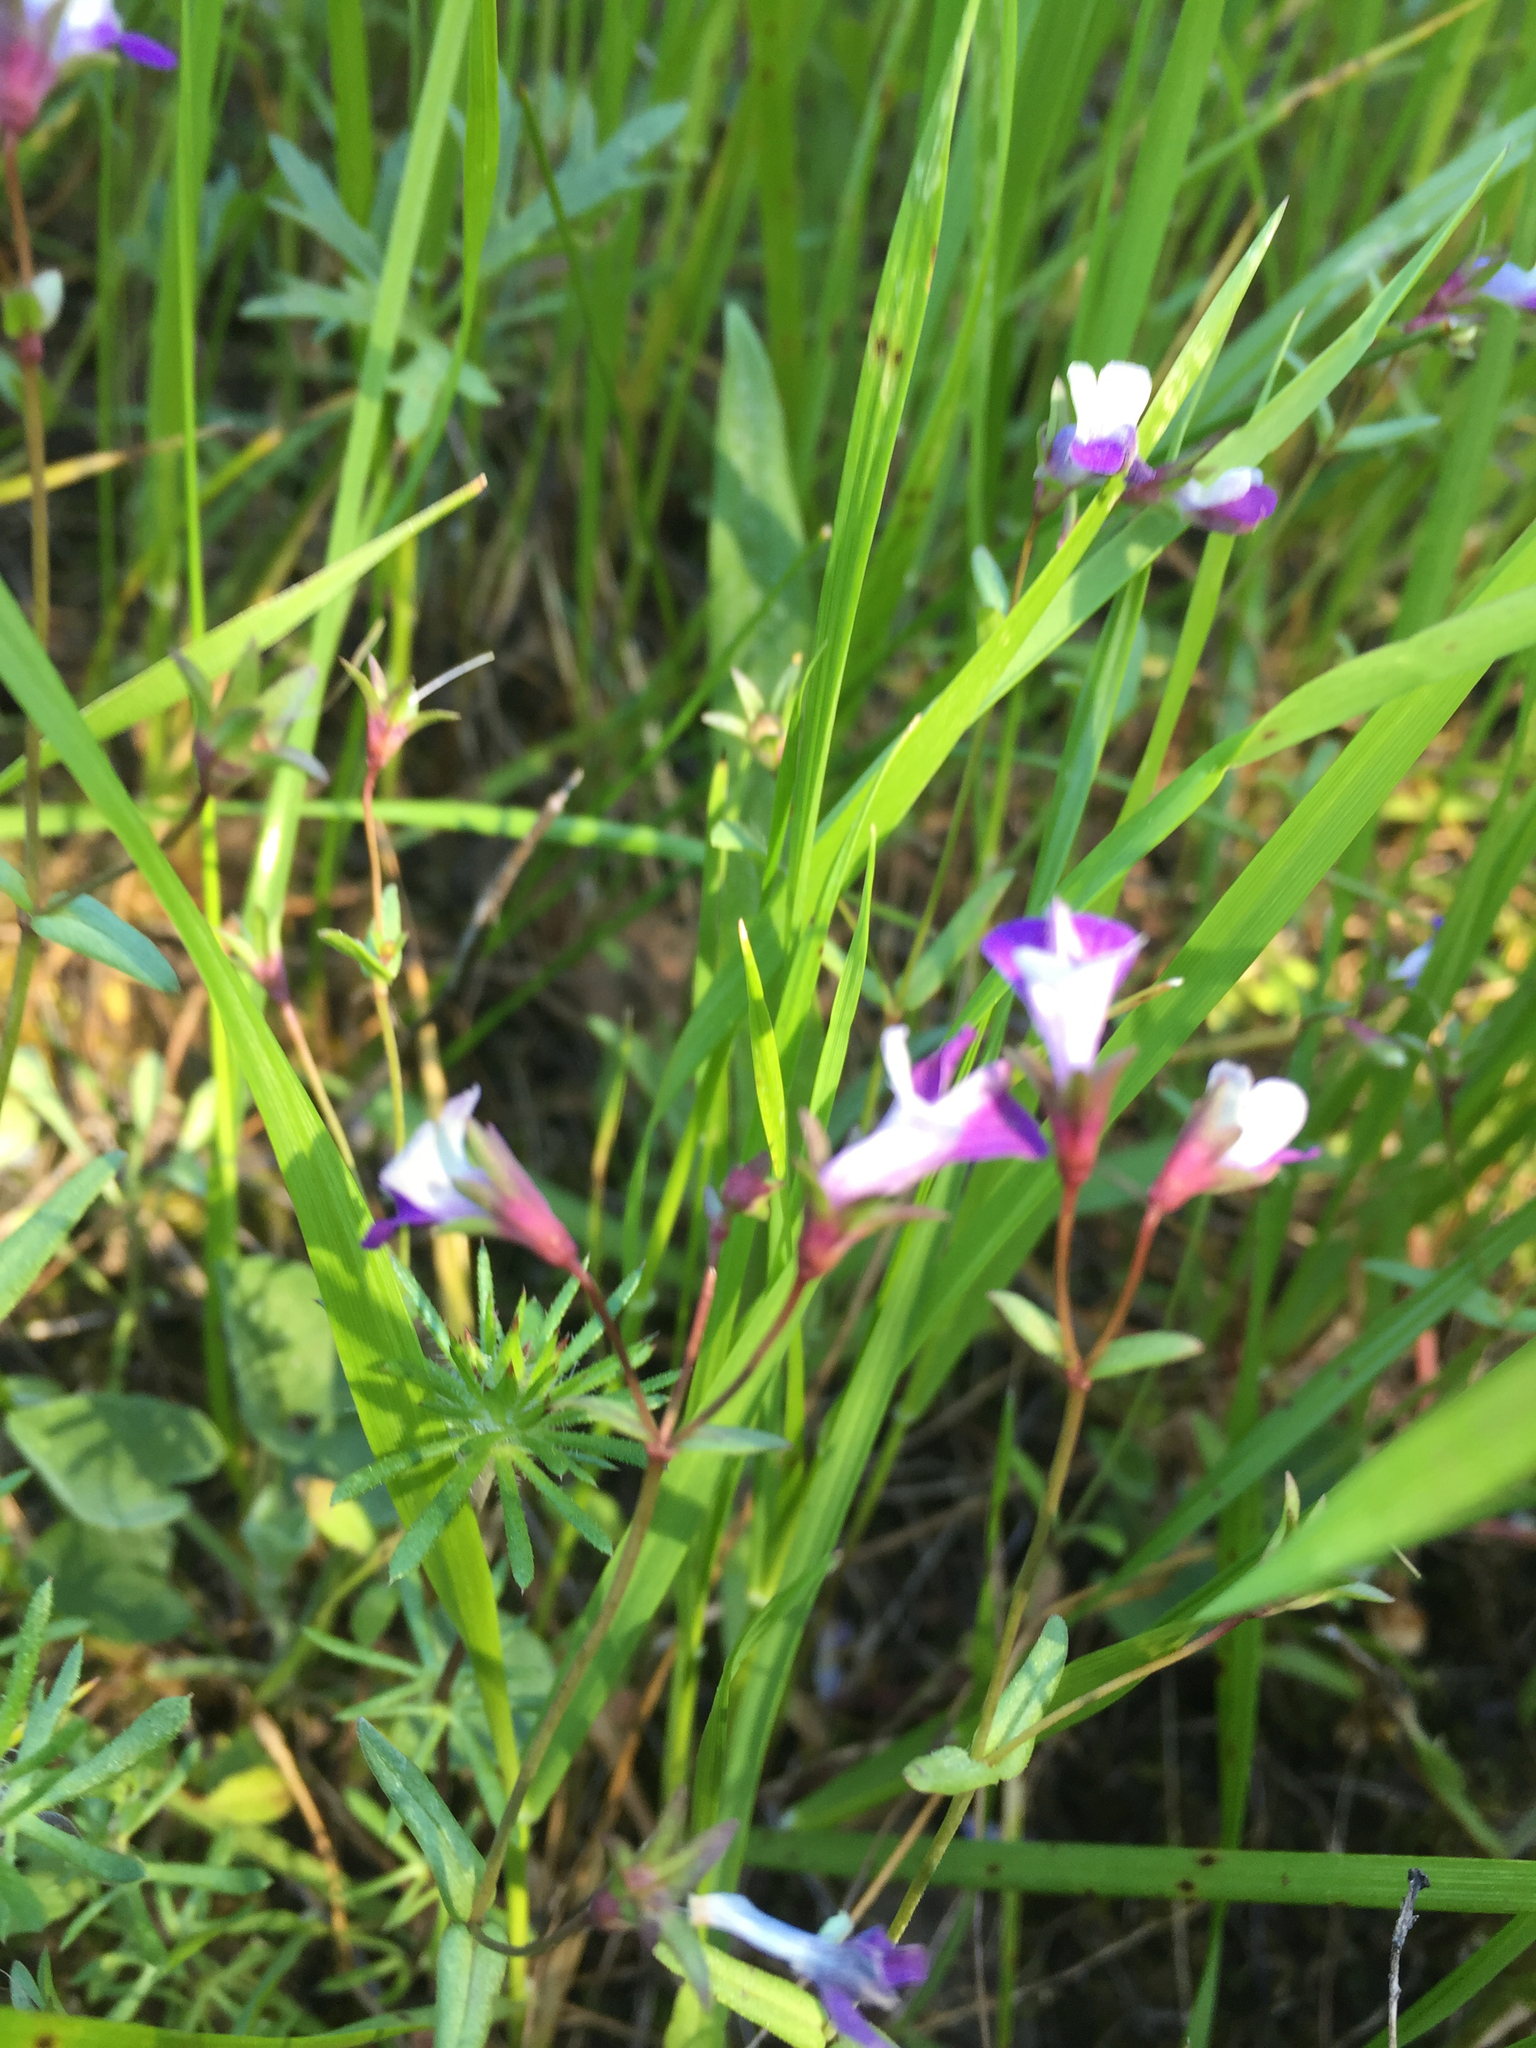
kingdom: Plantae
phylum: Tracheophyta
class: Magnoliopsida
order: Lamiales
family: Plantaginaceae
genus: Collinsia
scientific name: Collinsia sparsiflora
